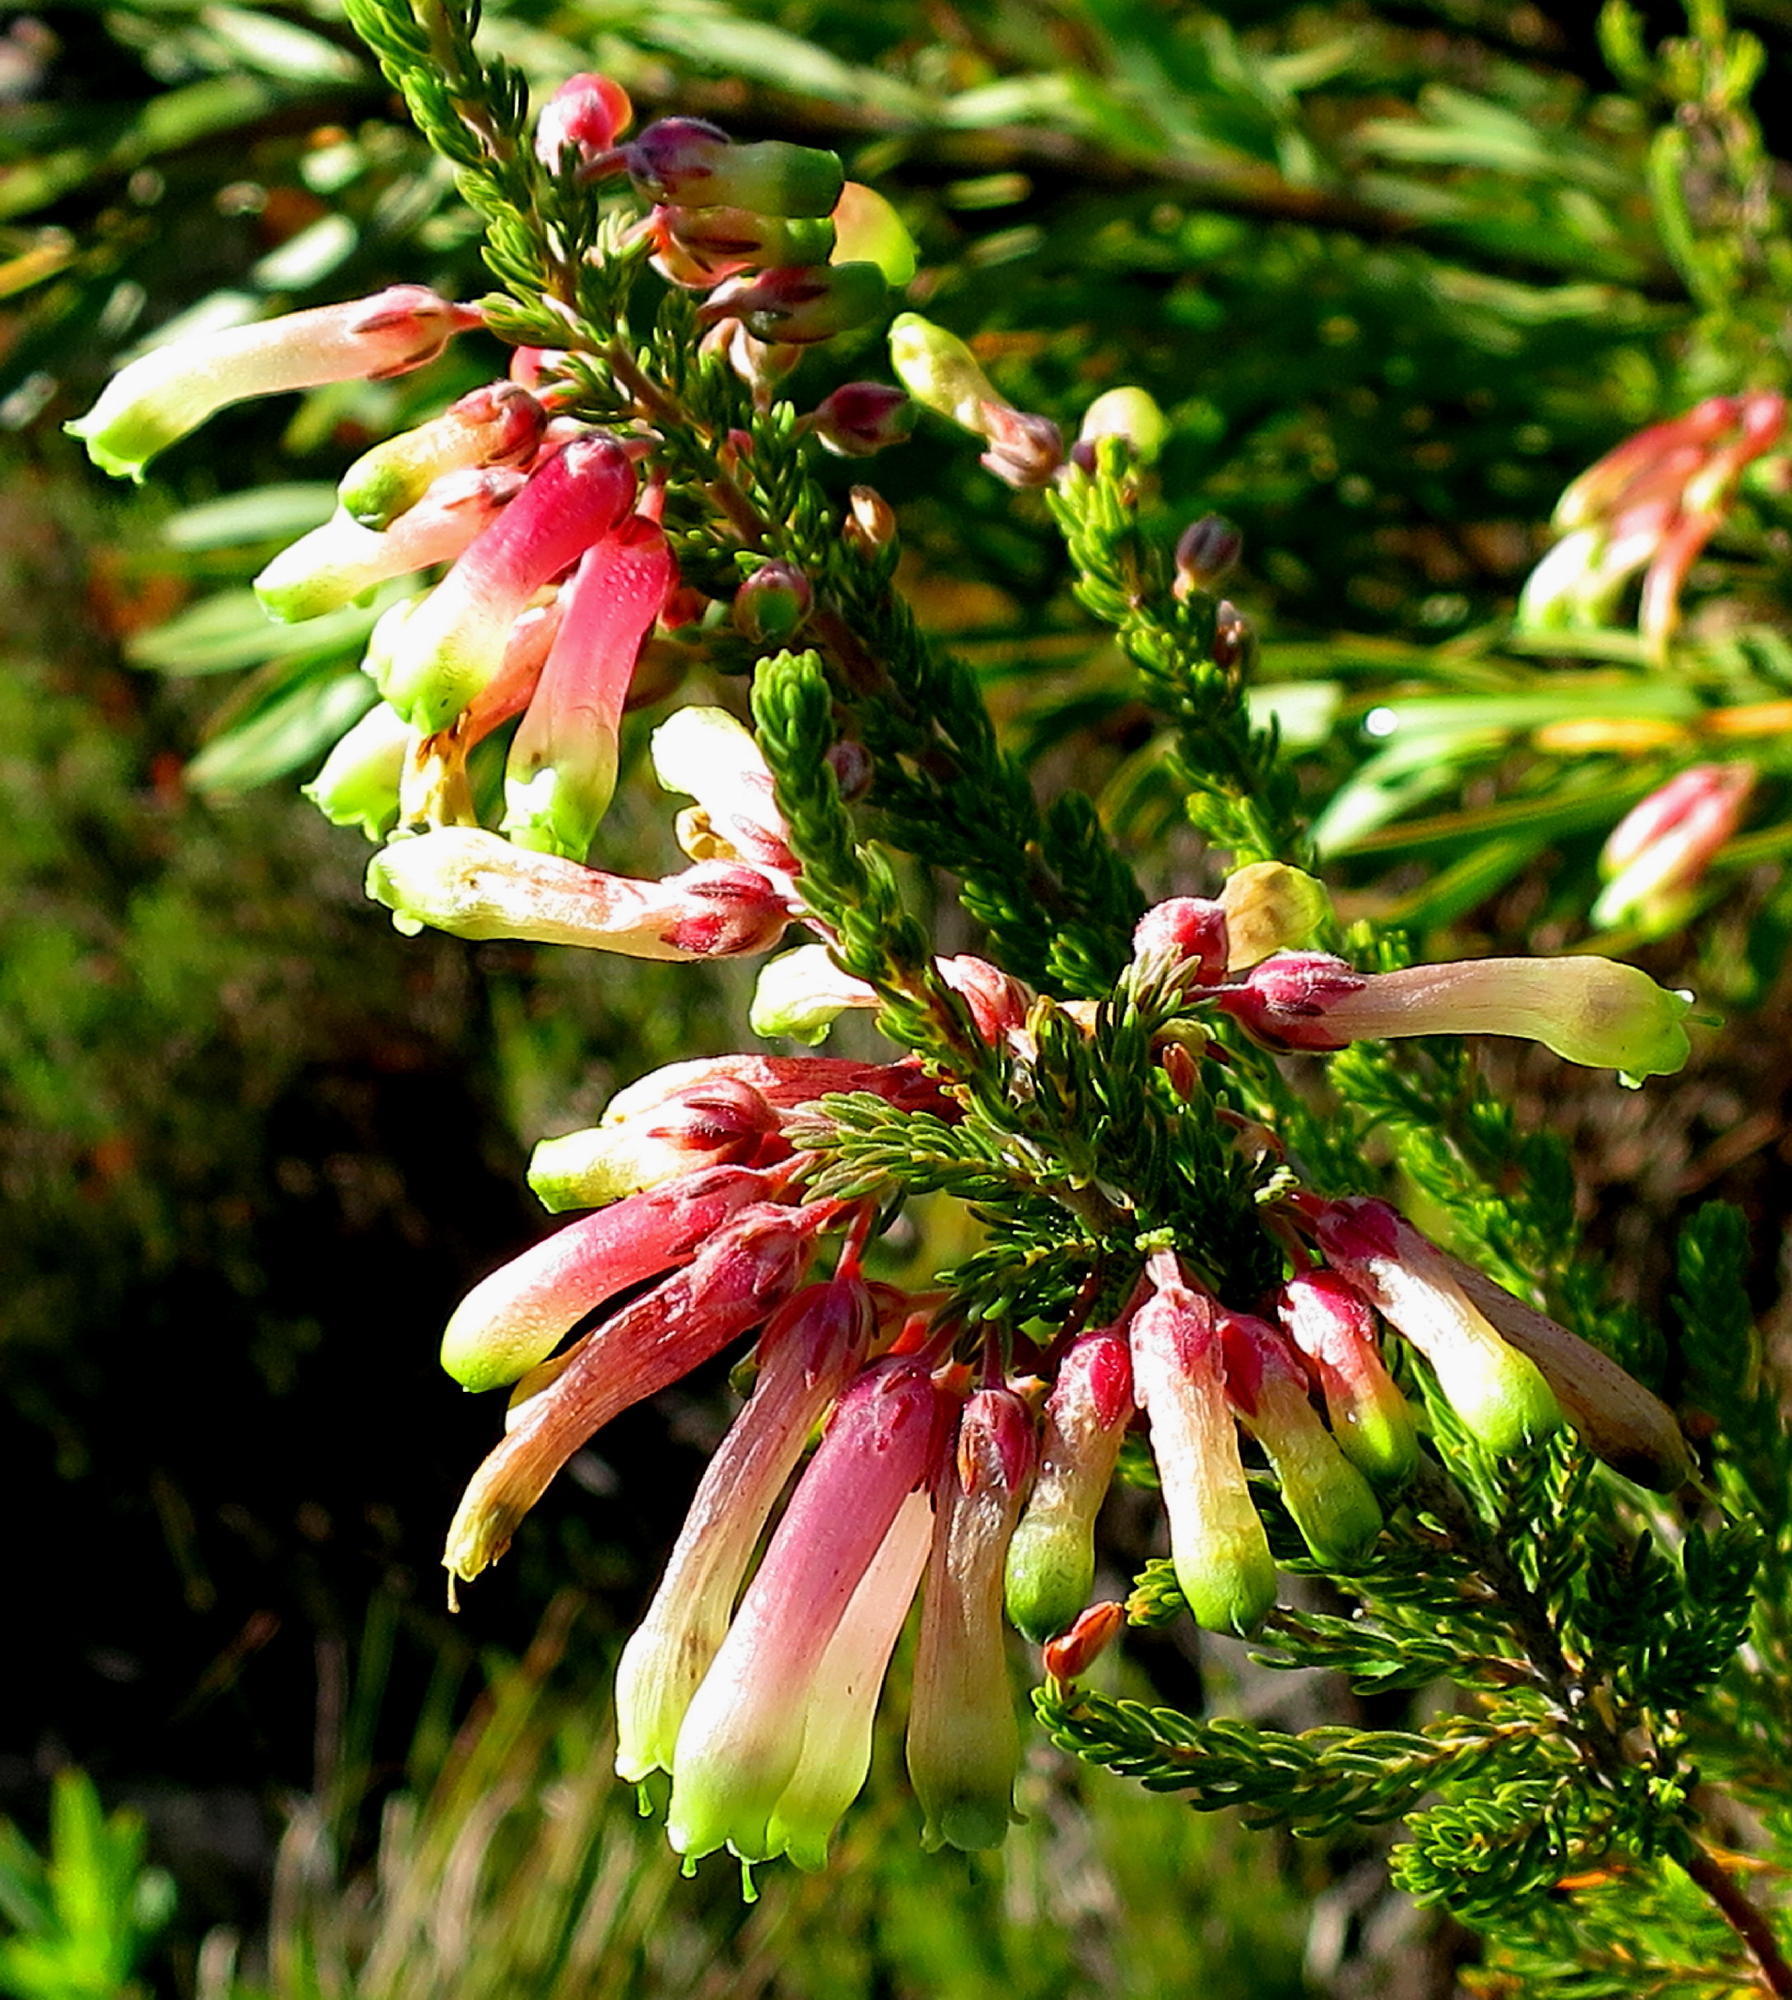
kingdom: Plantae
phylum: Tracheophyta
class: Magnoliopsida
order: Ericales
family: Ericaceae
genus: Erica
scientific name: Erica discolor
